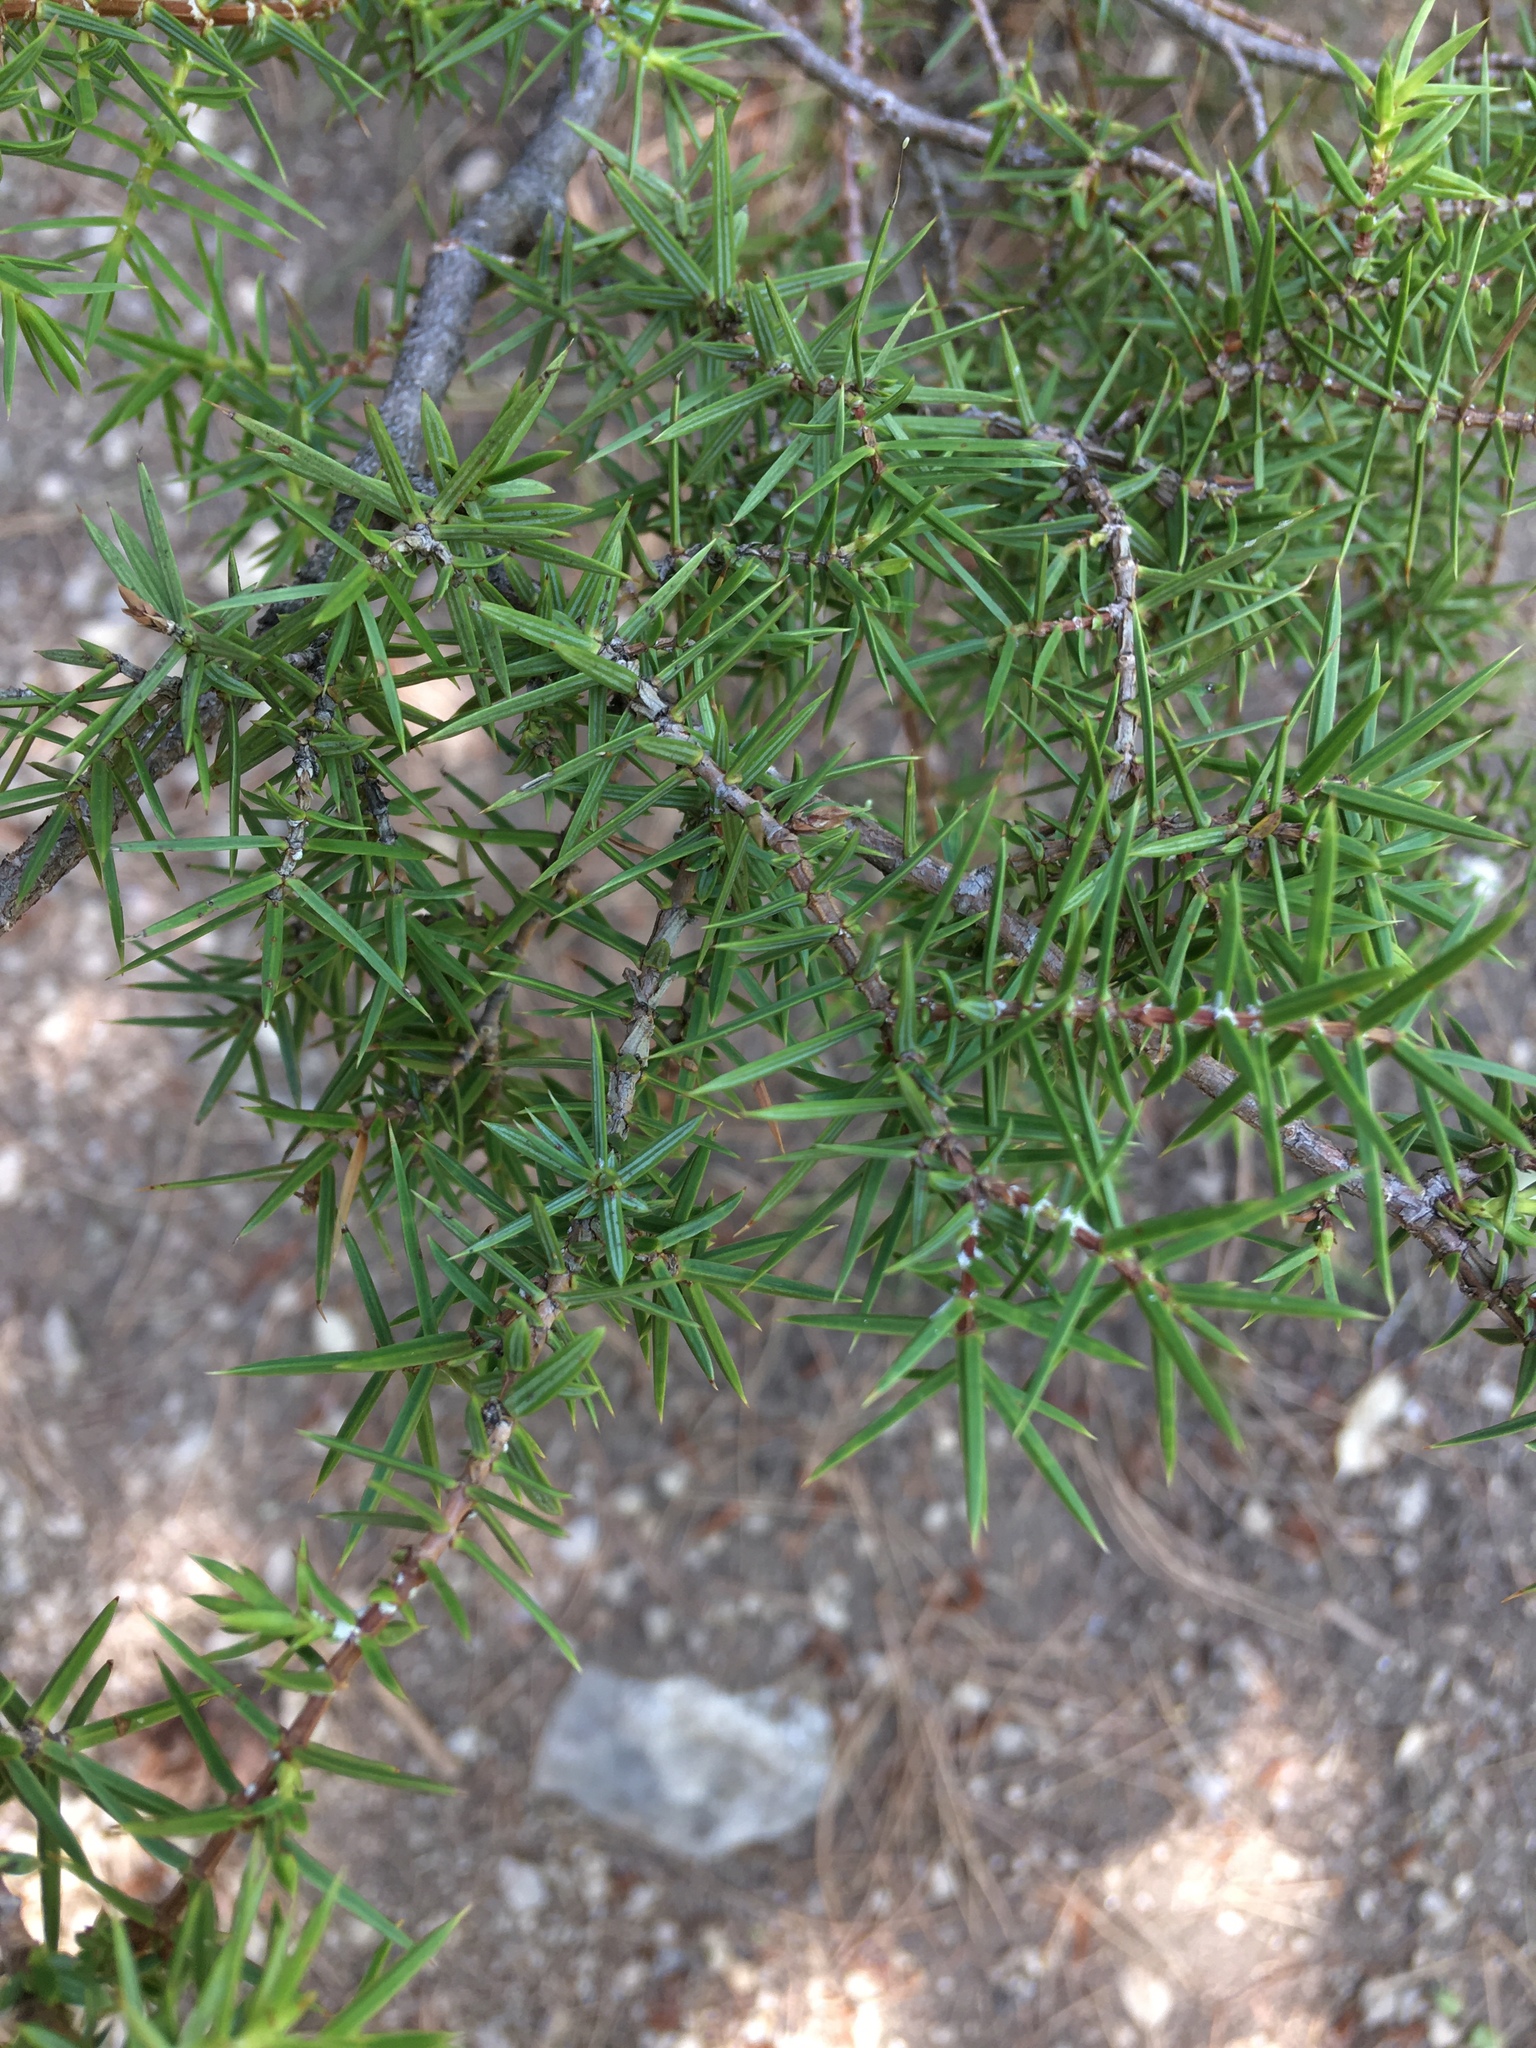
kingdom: Plantae
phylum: Tracheophyta
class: Pinopsida
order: Pinales
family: Cupressaceae
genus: Juniperus
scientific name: Juniperus oxycedrus
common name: Prickly juniper
